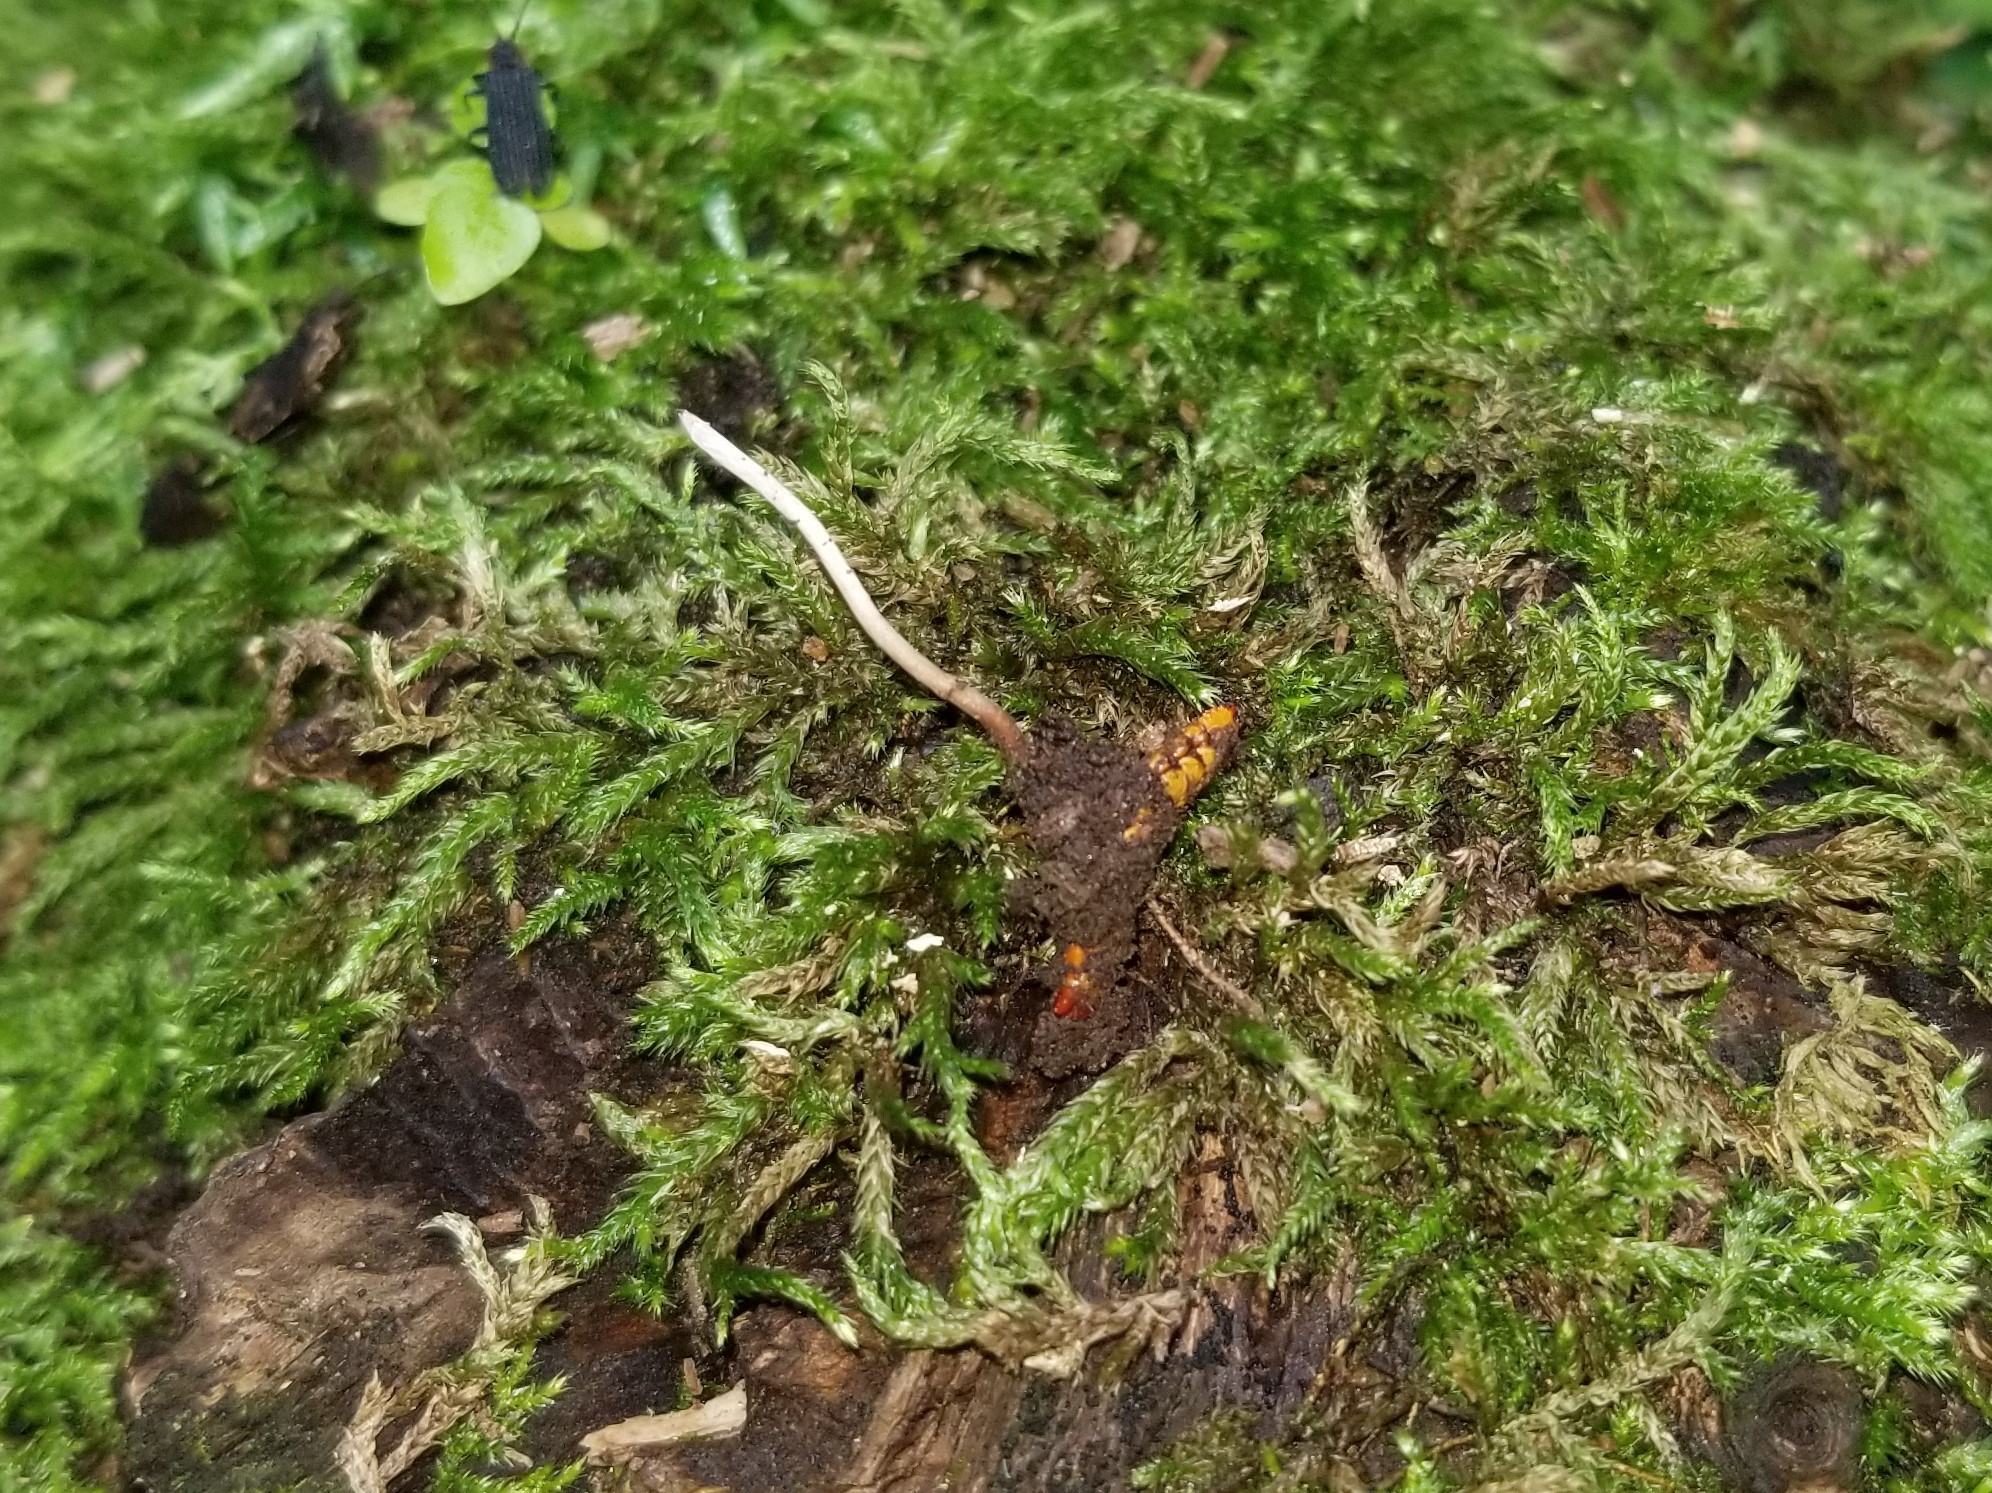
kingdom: Fungi
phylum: Ascomycota
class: Sordariomycetes
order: Hypocreales
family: Ophiocordycipitaceae
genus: Ophiocordyceps
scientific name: Ophiocordyceps stylophora
